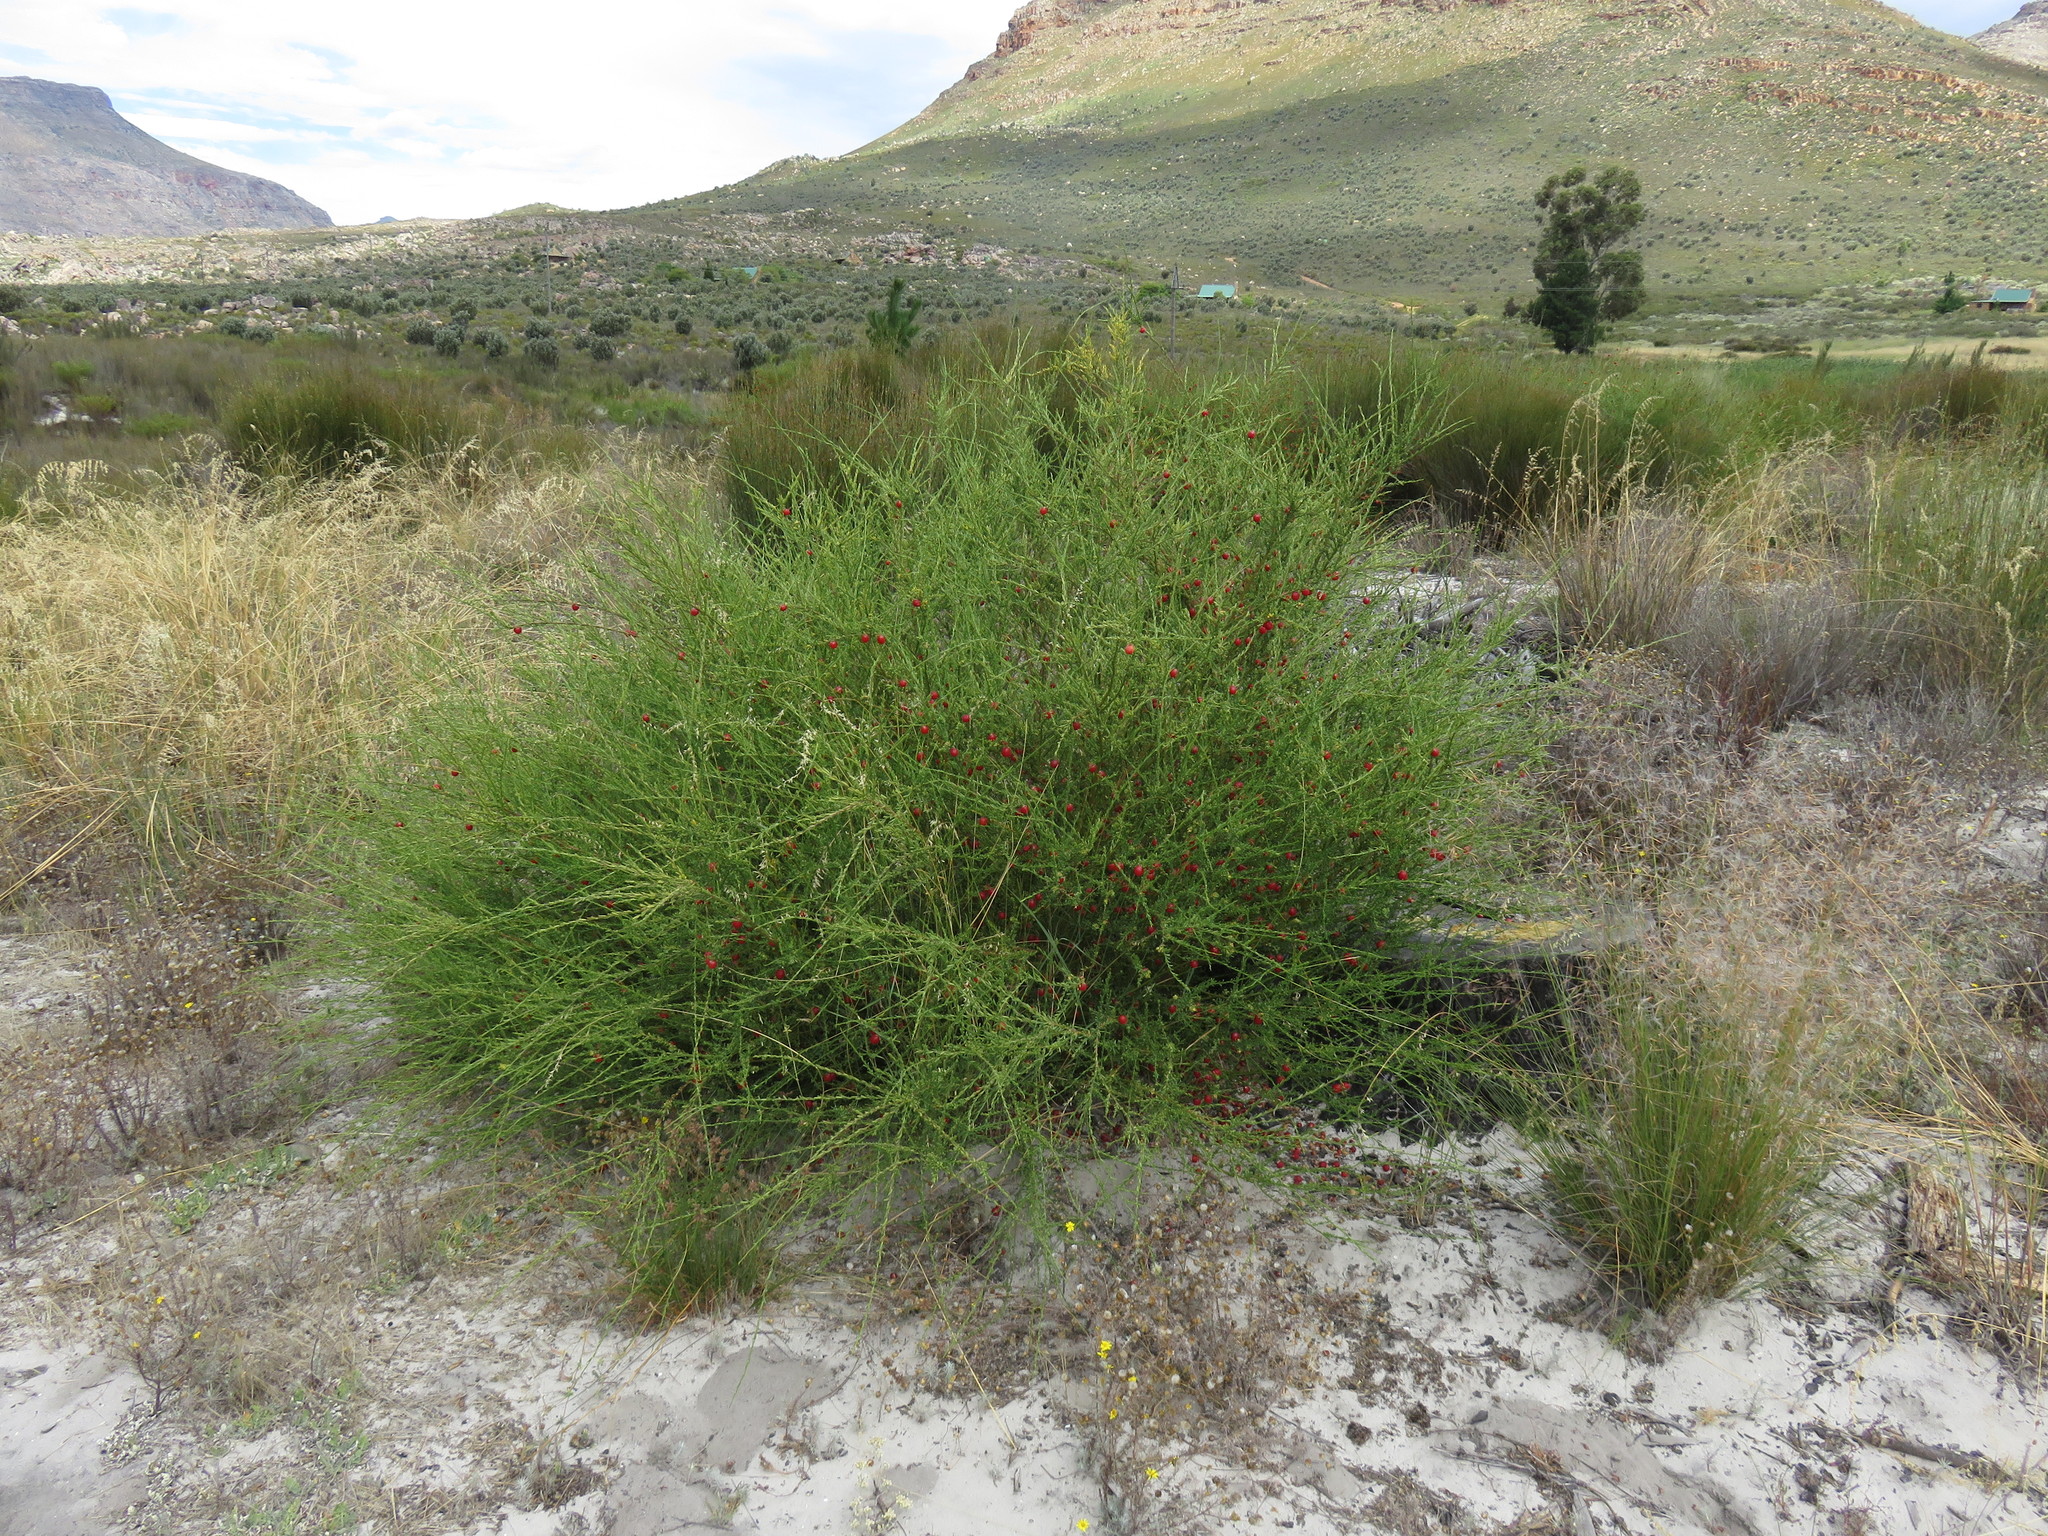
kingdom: Plantae
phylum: Tracheophyta
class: Magnoliopsida
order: Fabales
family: Polygalaceae
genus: Muraltia
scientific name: Muraltia spinosa
